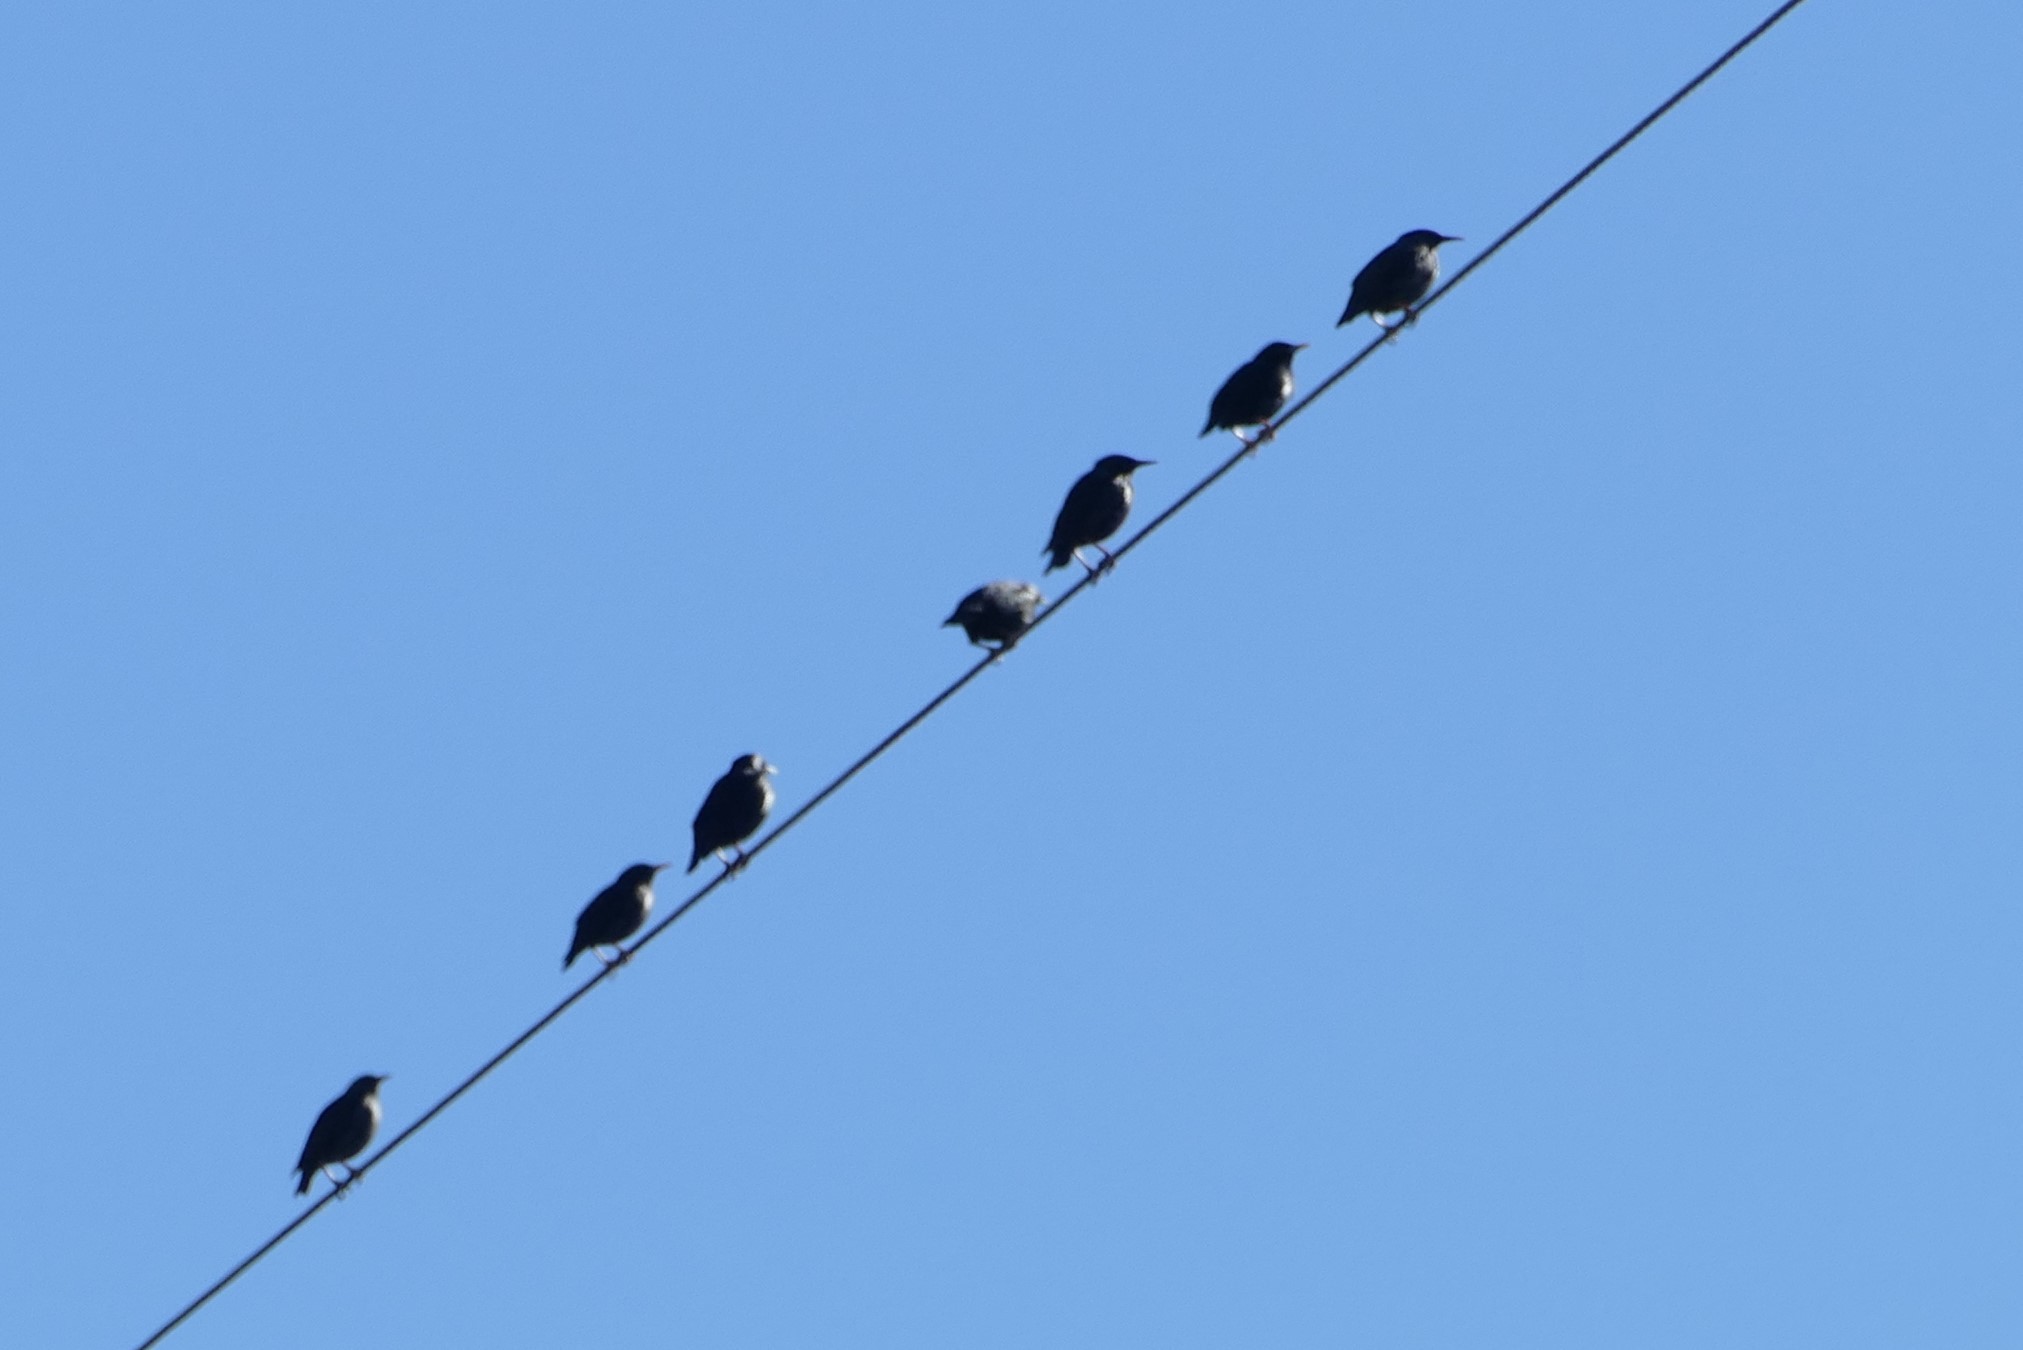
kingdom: Animalia
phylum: Chordata
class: Aves
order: Passeriformes
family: Sturnidae
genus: Sturnus
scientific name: Sturnus unicolor
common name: Spotless starling
